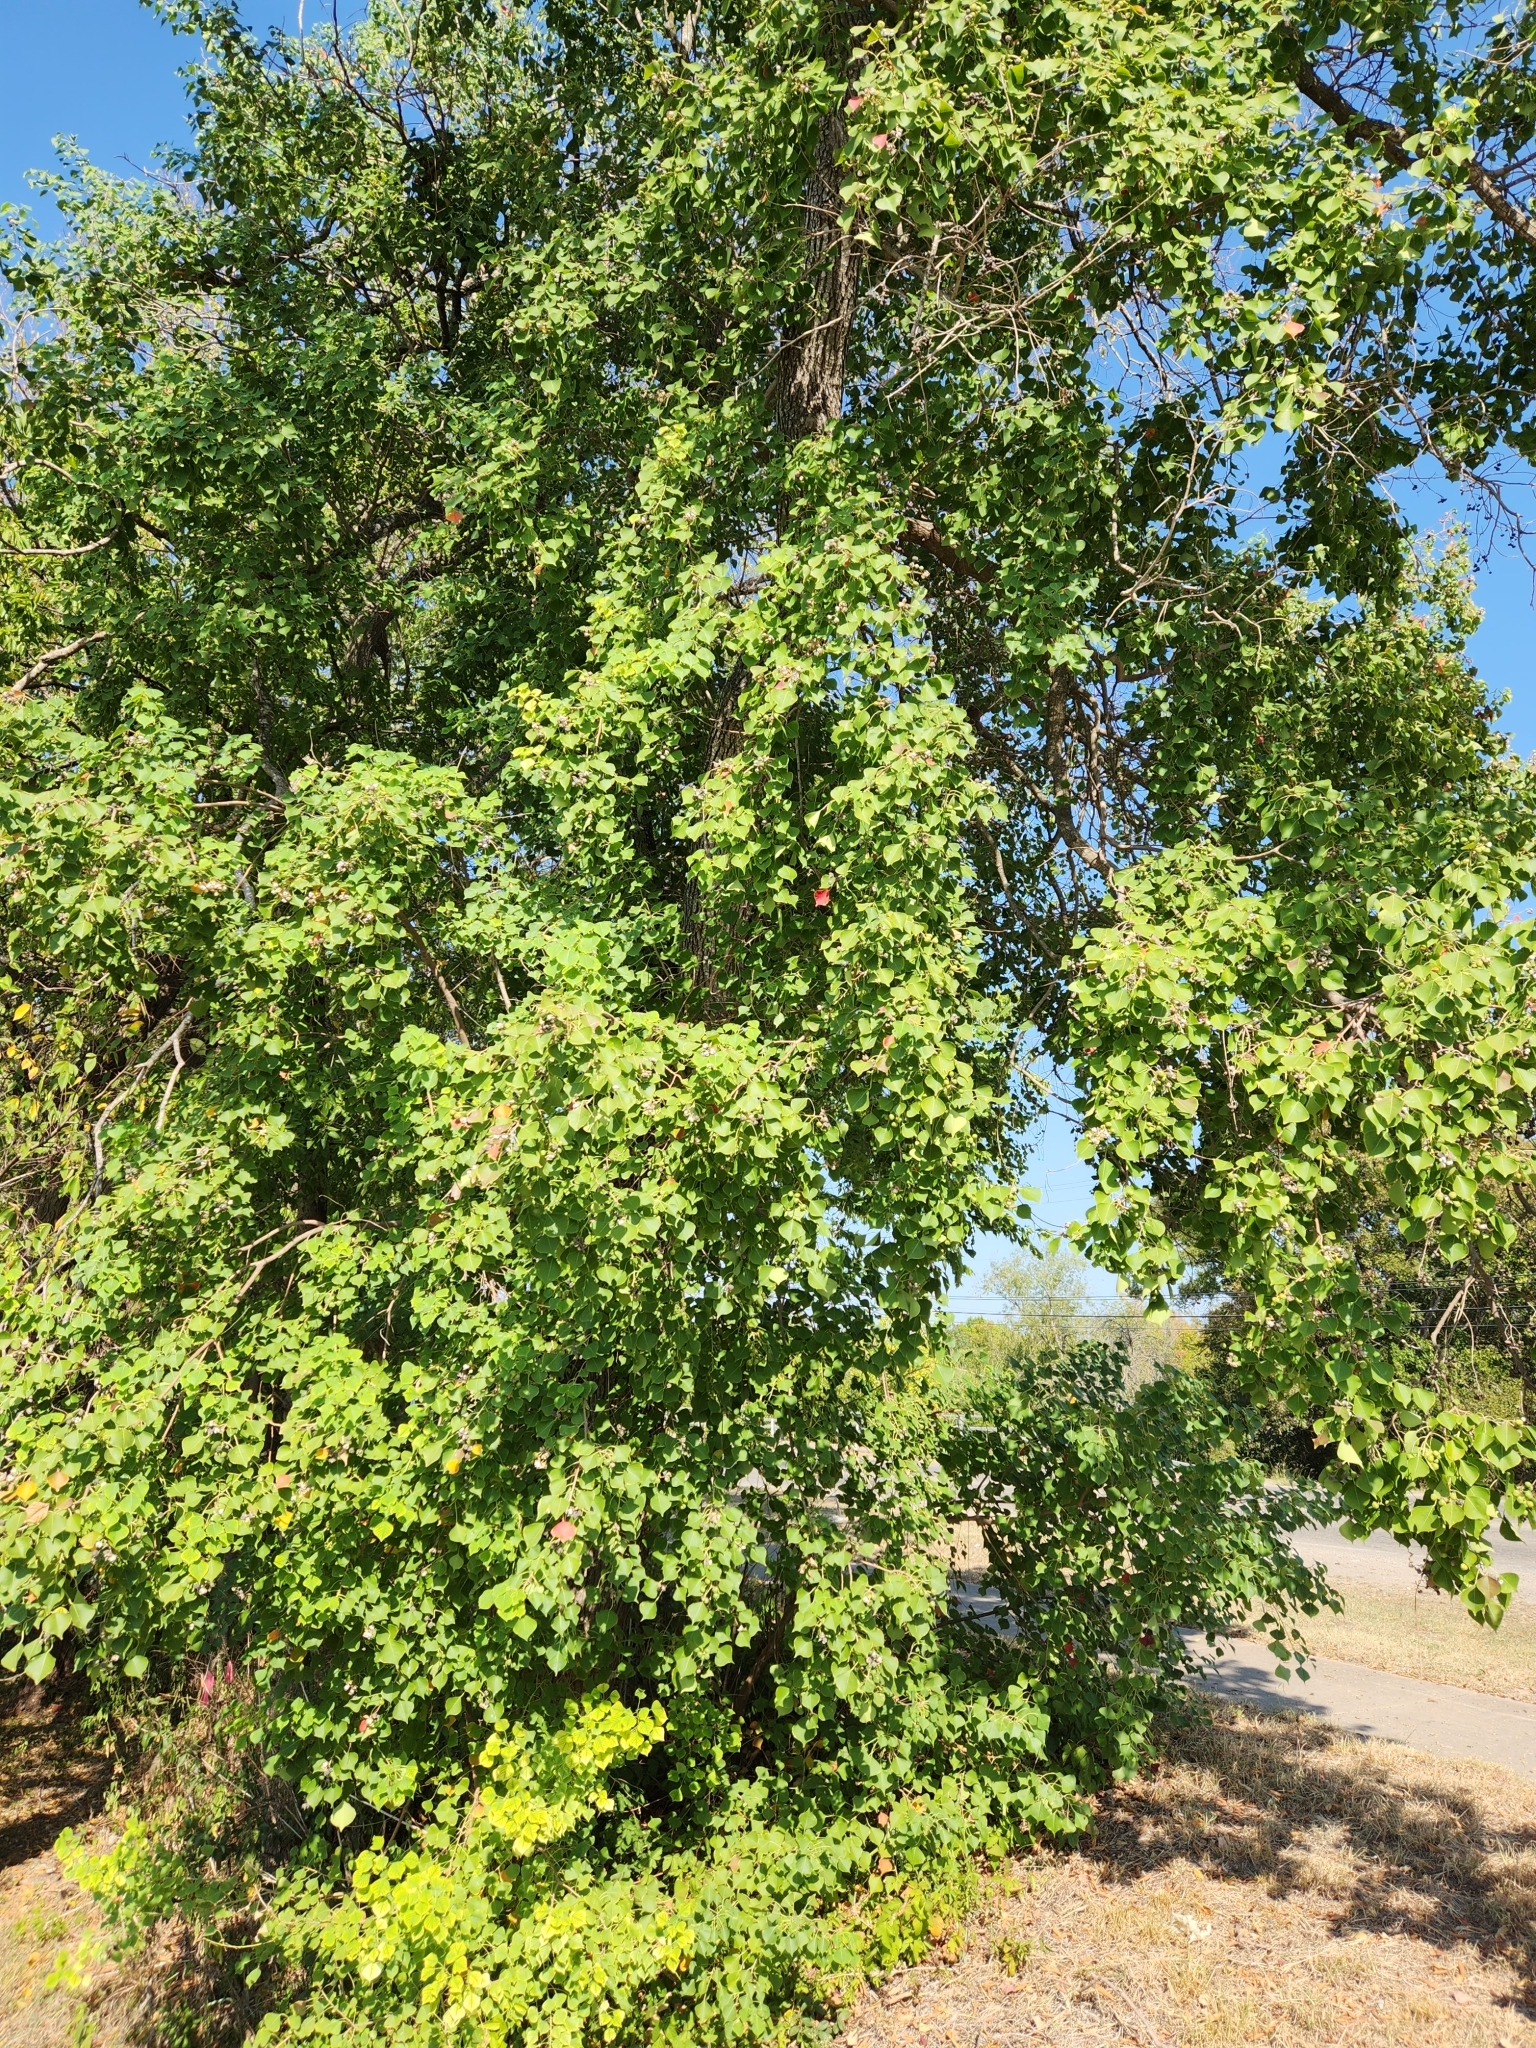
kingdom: Plantae
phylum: Tracheophyta
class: Magnoliopsida
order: Malpighiales
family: Euphorbiaceae
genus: Triadica
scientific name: Triadica sebifera
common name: Chinese tallow
